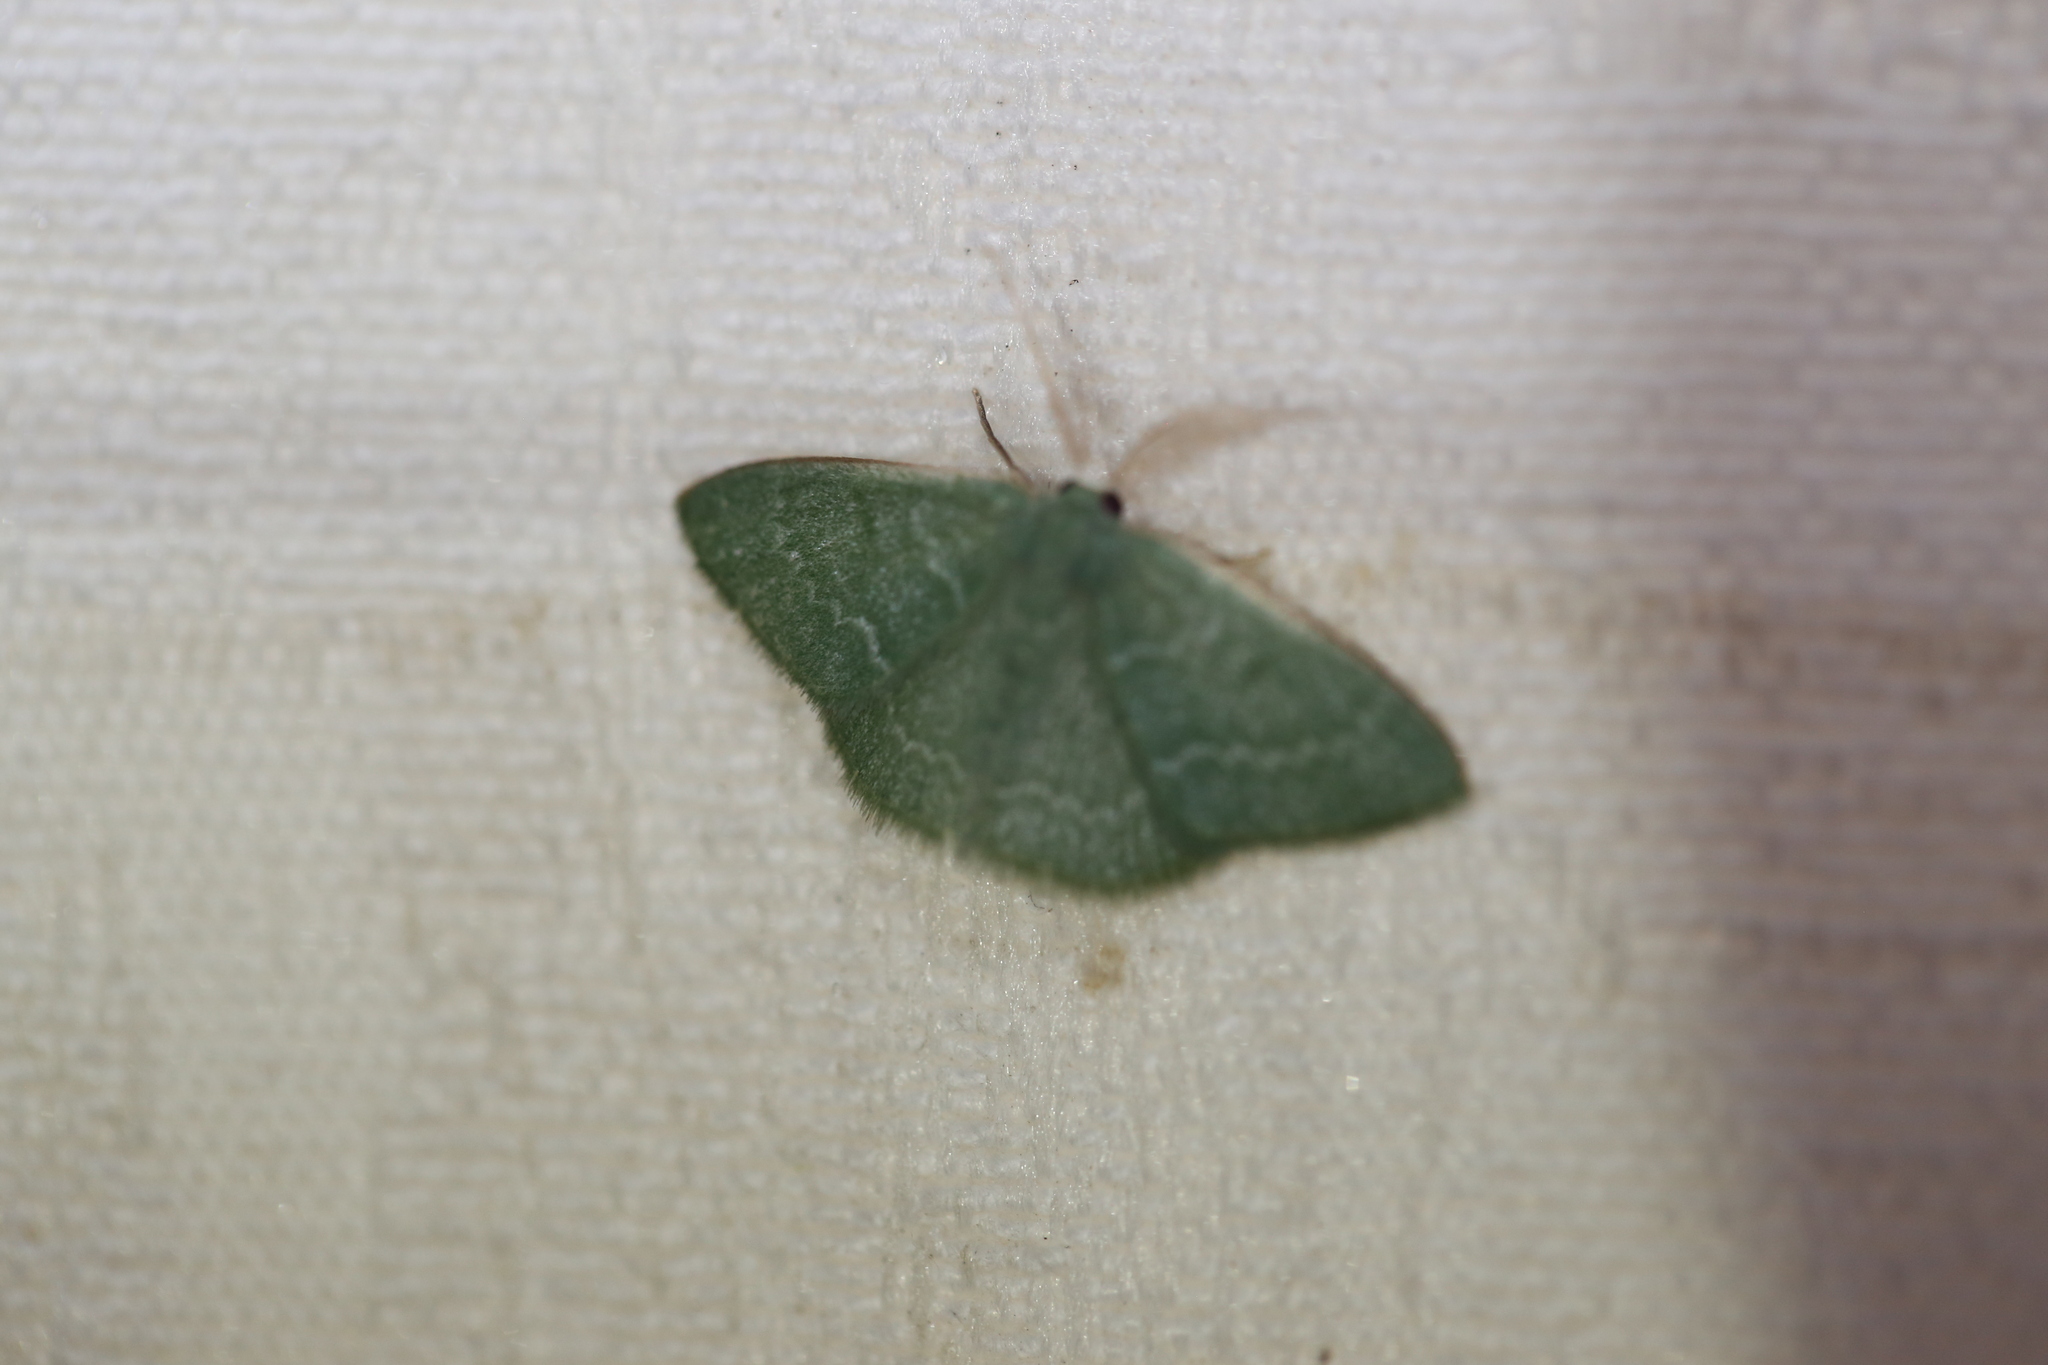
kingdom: Animalia
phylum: Arthropoda
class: Insecta
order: Lepidoptera
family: Geometridae
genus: Chlorocoma
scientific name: Chlorocoma tachypora
